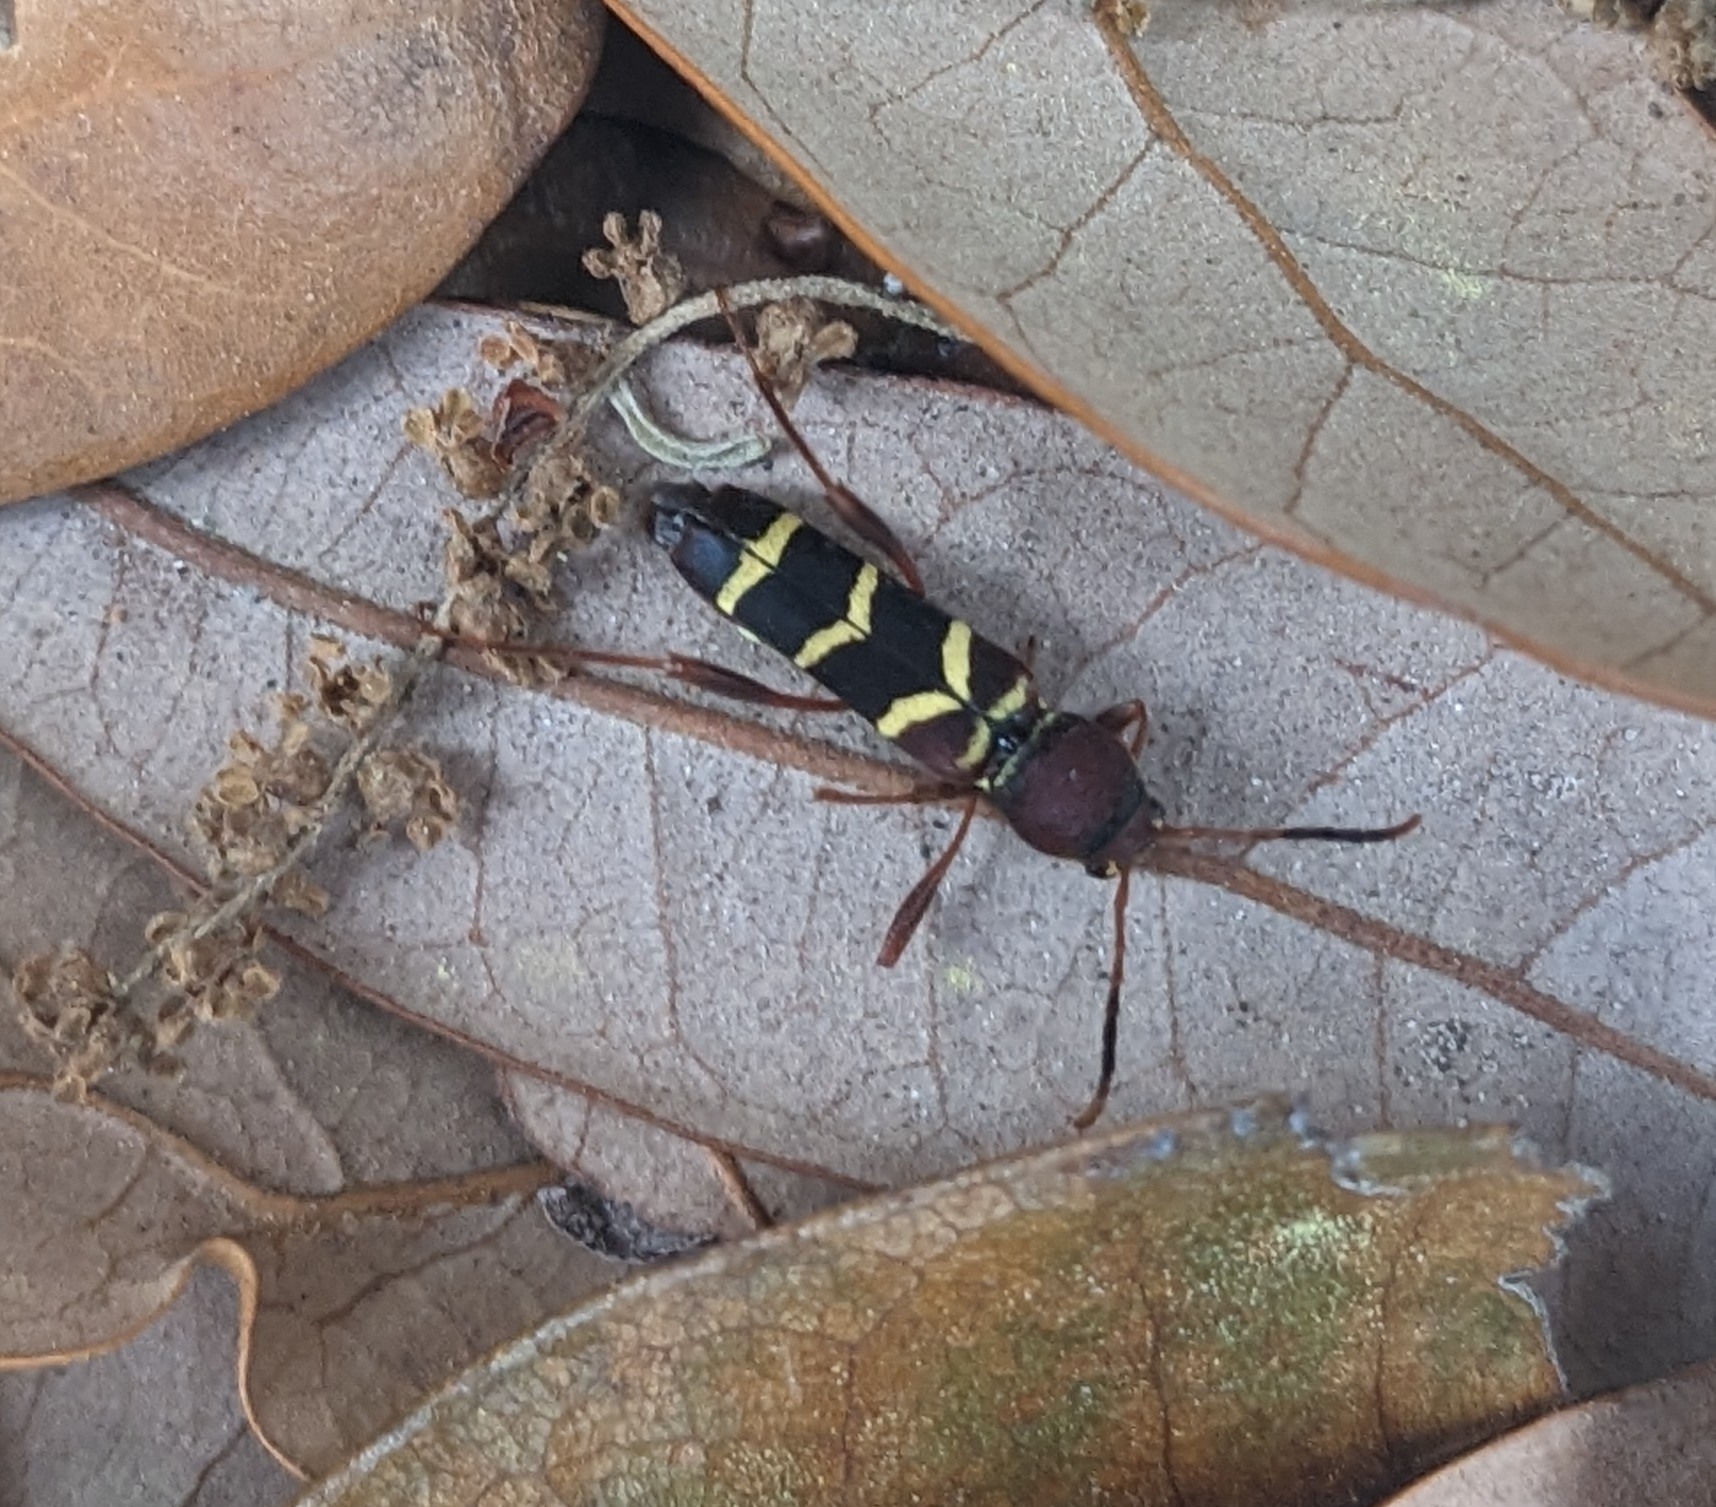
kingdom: Animalia
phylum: Arthropoda
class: Insecta
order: Coleoptera
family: Cerambycidae
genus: Neoclytus
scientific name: Neoclytus acuminatus
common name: Read-headed ash borer
